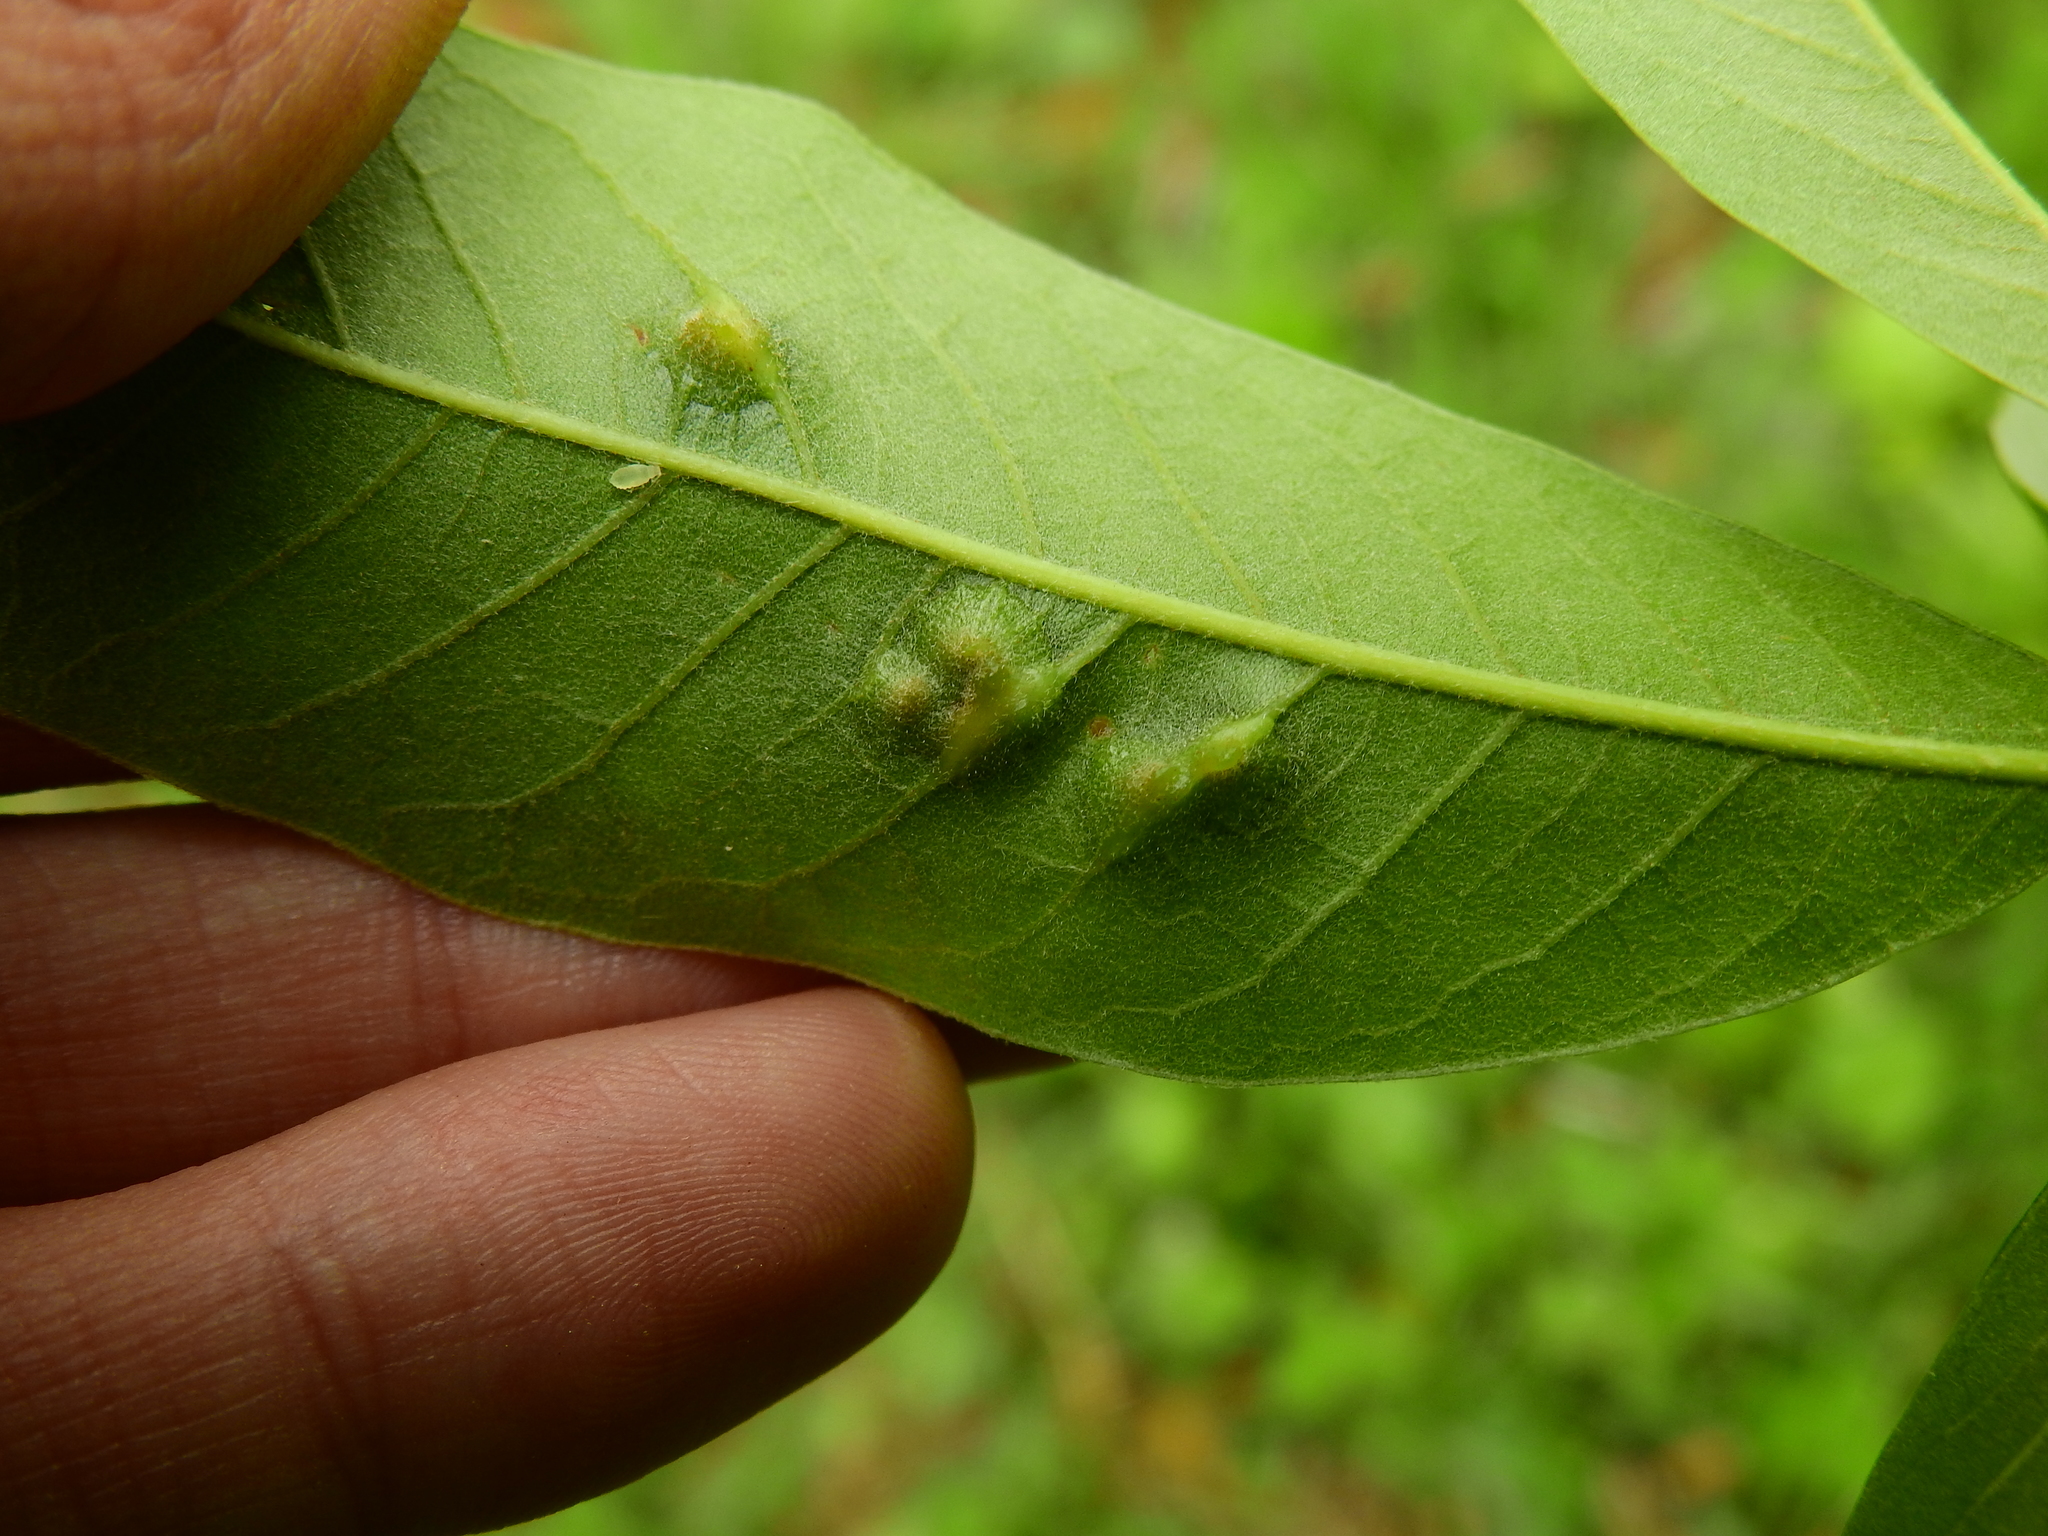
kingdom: Animalia
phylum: Arthropoda
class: Insecta
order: Diptera
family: Cecidomyiidae
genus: Polystepha
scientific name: Polystepha pilulae
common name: Oak leaf gall midge
